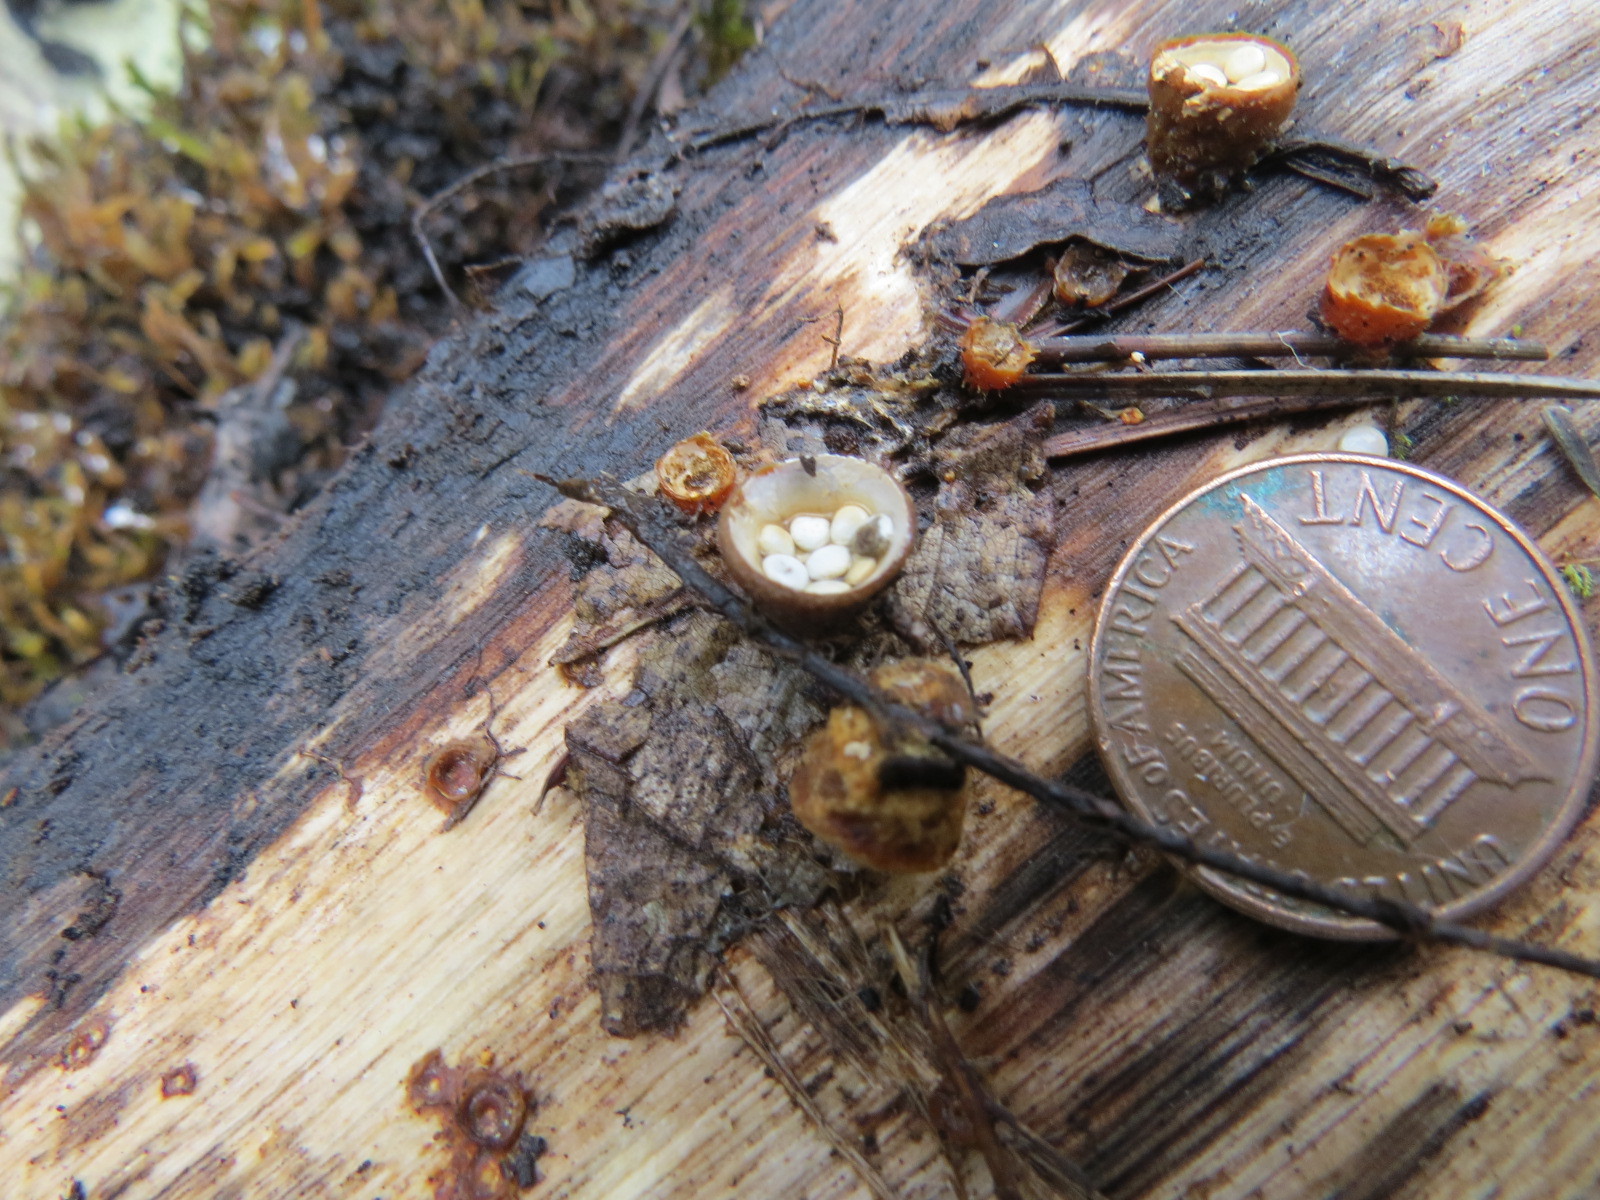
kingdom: Fungi
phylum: Basidiomycota
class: Agaricomycetes
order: Agaricales
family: Nidulariaceae
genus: Crucibulum
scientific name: Crucibulum laeve
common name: Common bird's nest
